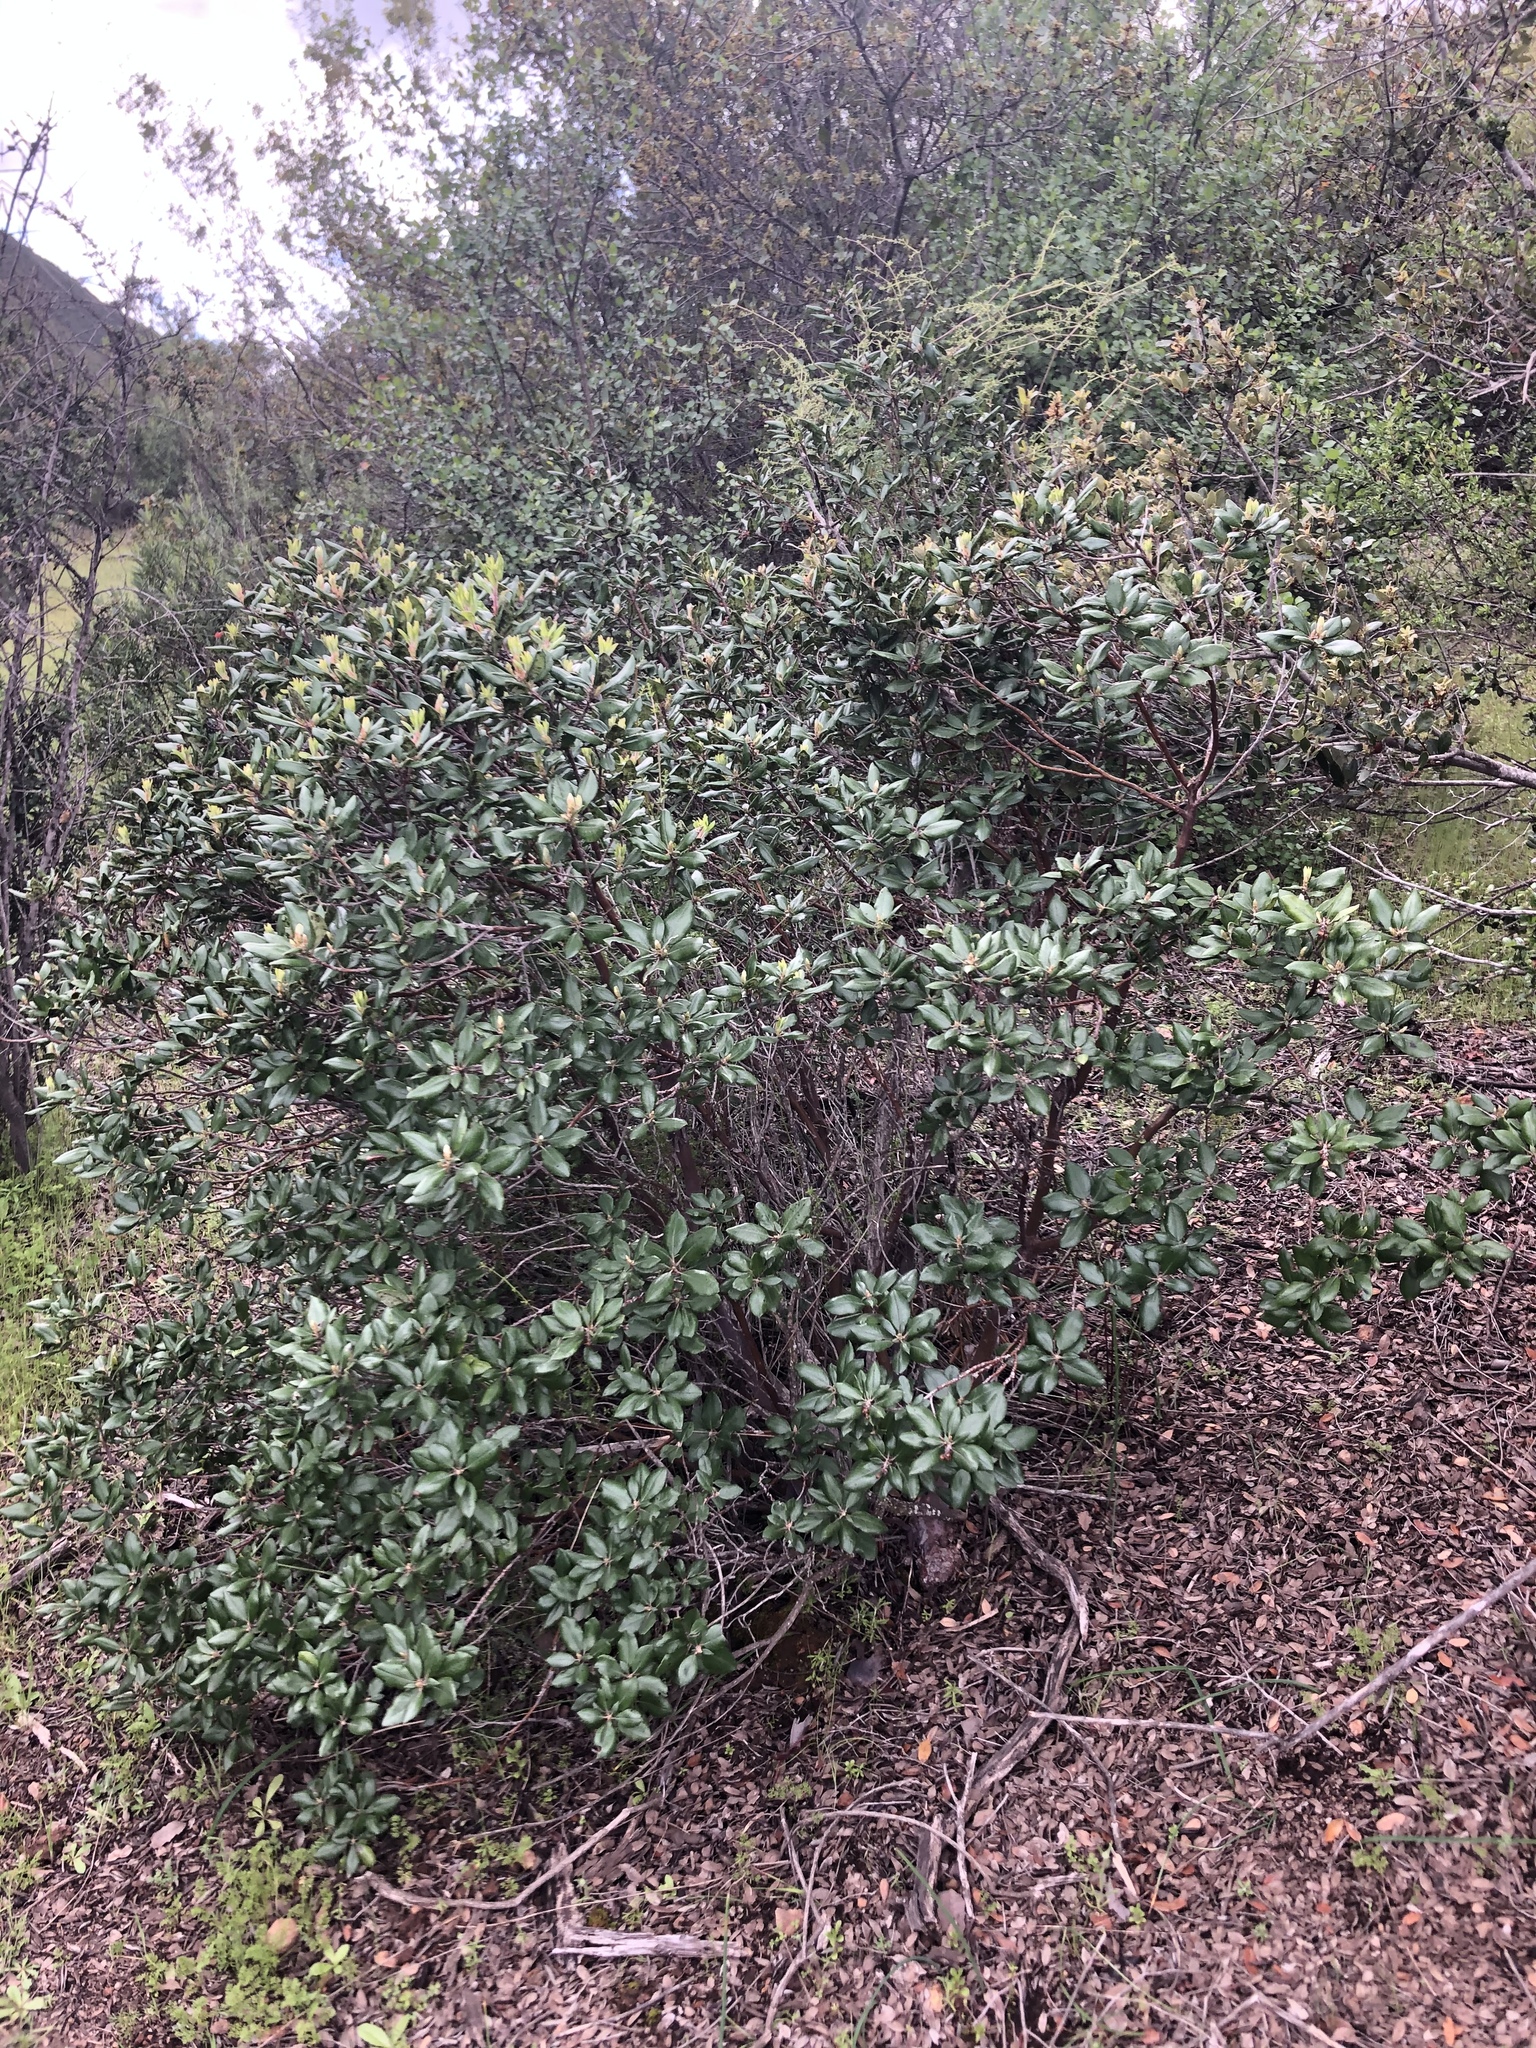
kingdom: Plantae
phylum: Tracheophyta
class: Magnoliopsida
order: Ericales
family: Ericaceae
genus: Arctostaphylos
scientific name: Arctostaphylos bicolor
